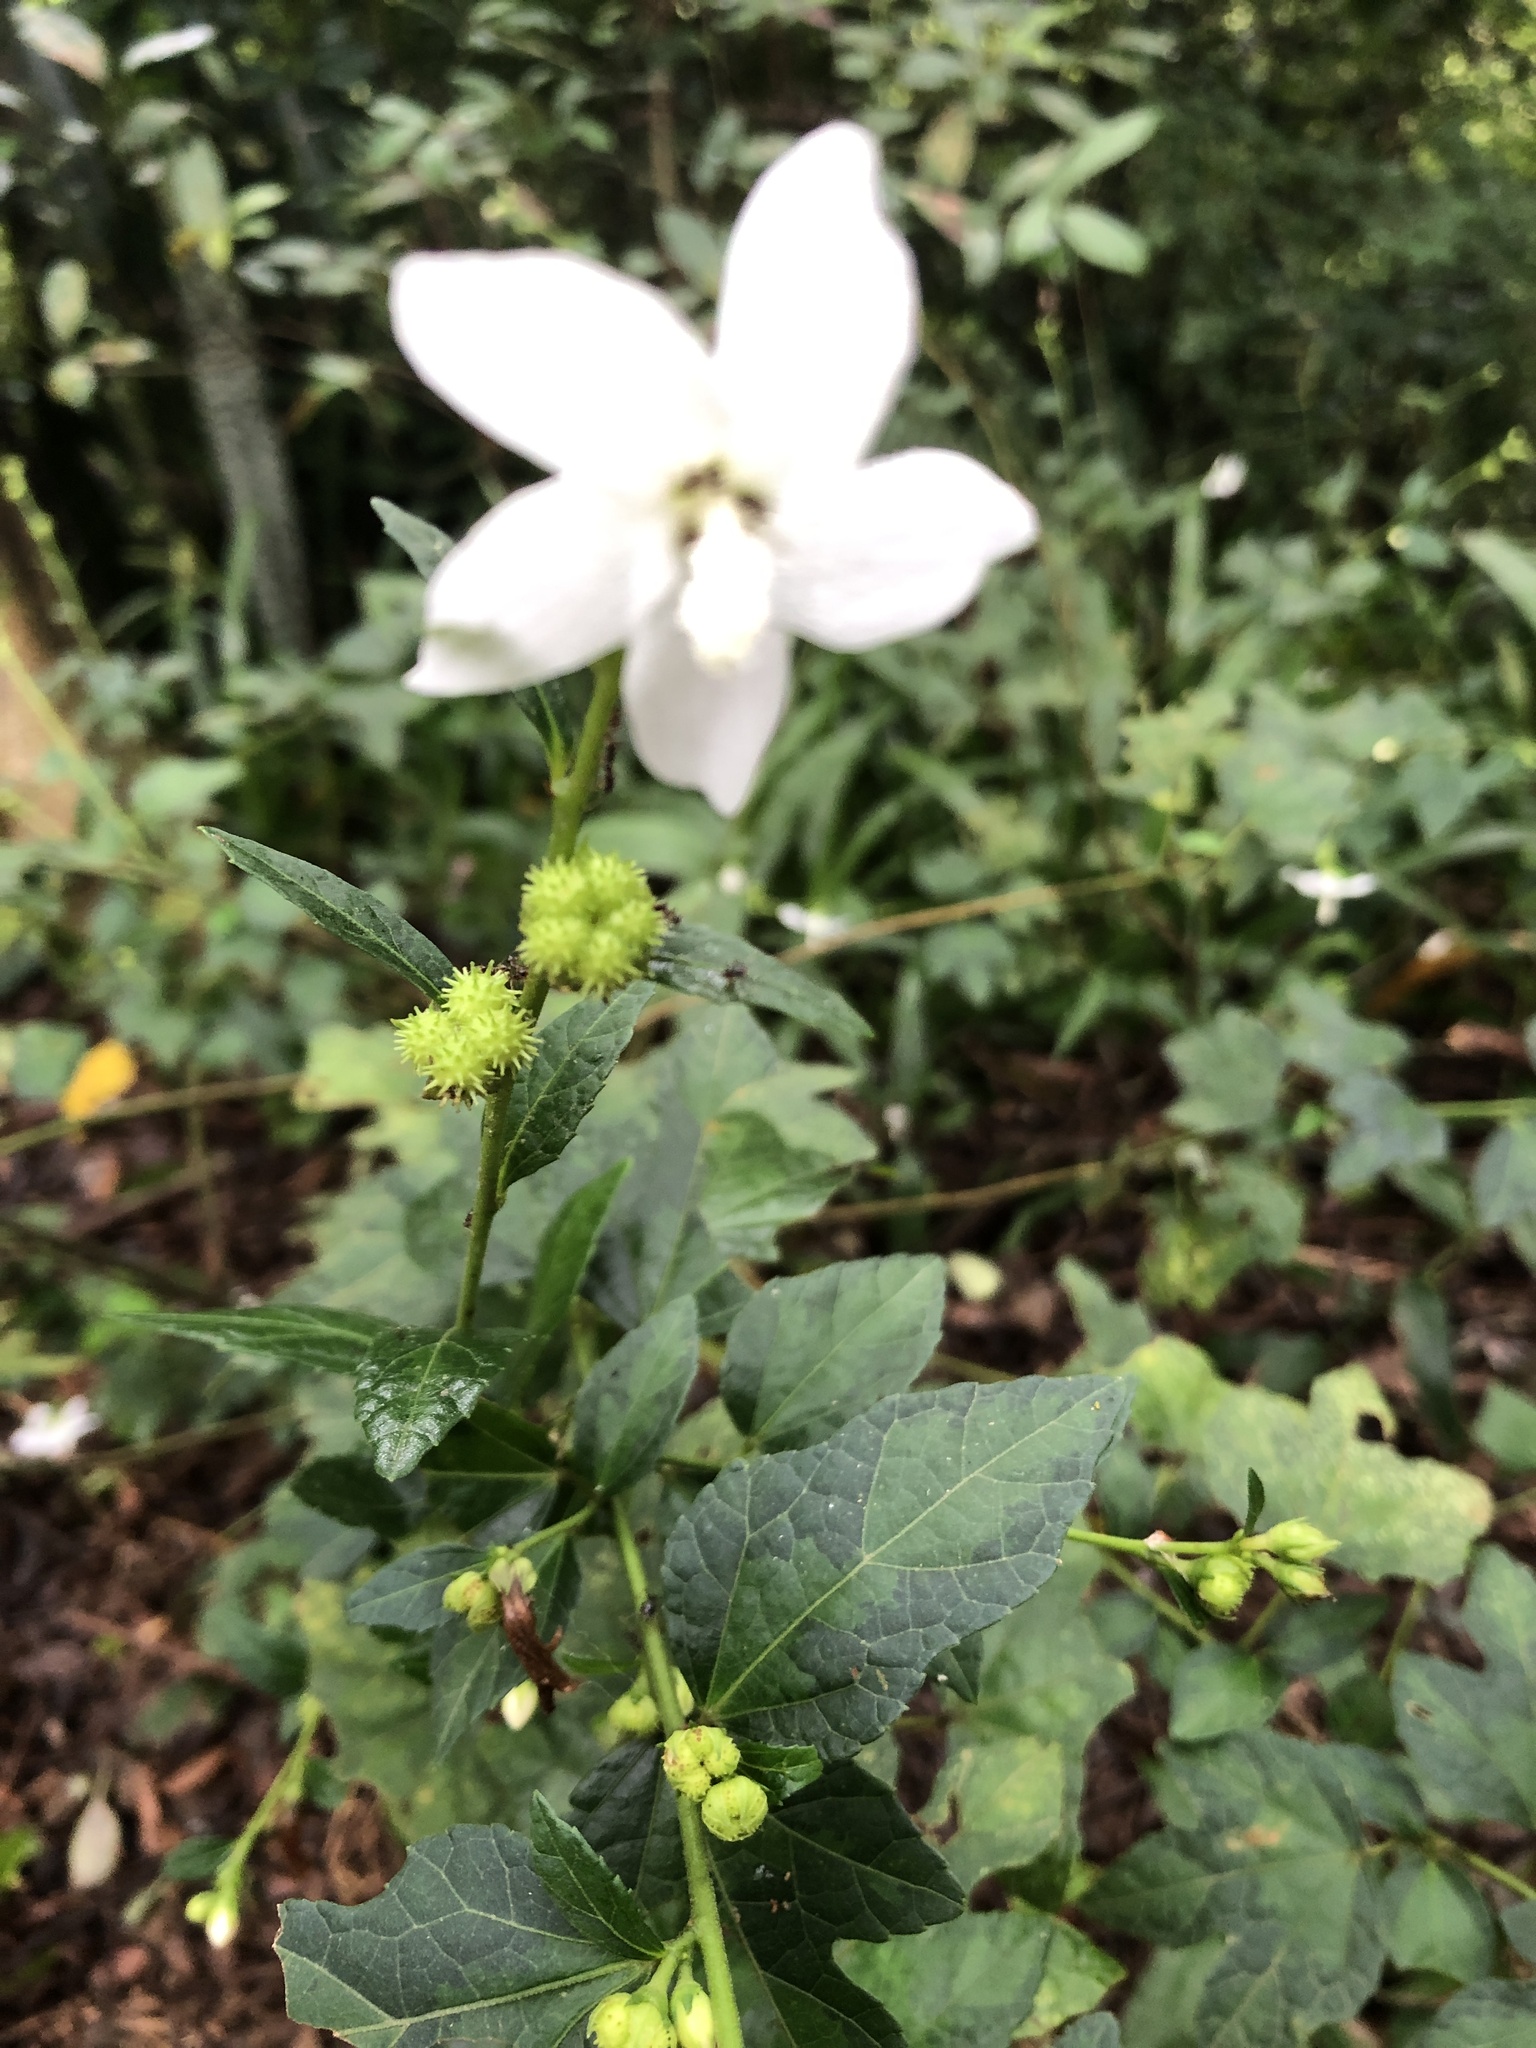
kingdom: Plantae
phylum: Tracheophyta
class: Magnoliopsida
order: Malvales
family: Malvaceae
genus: Urena
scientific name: Urena procumbens
